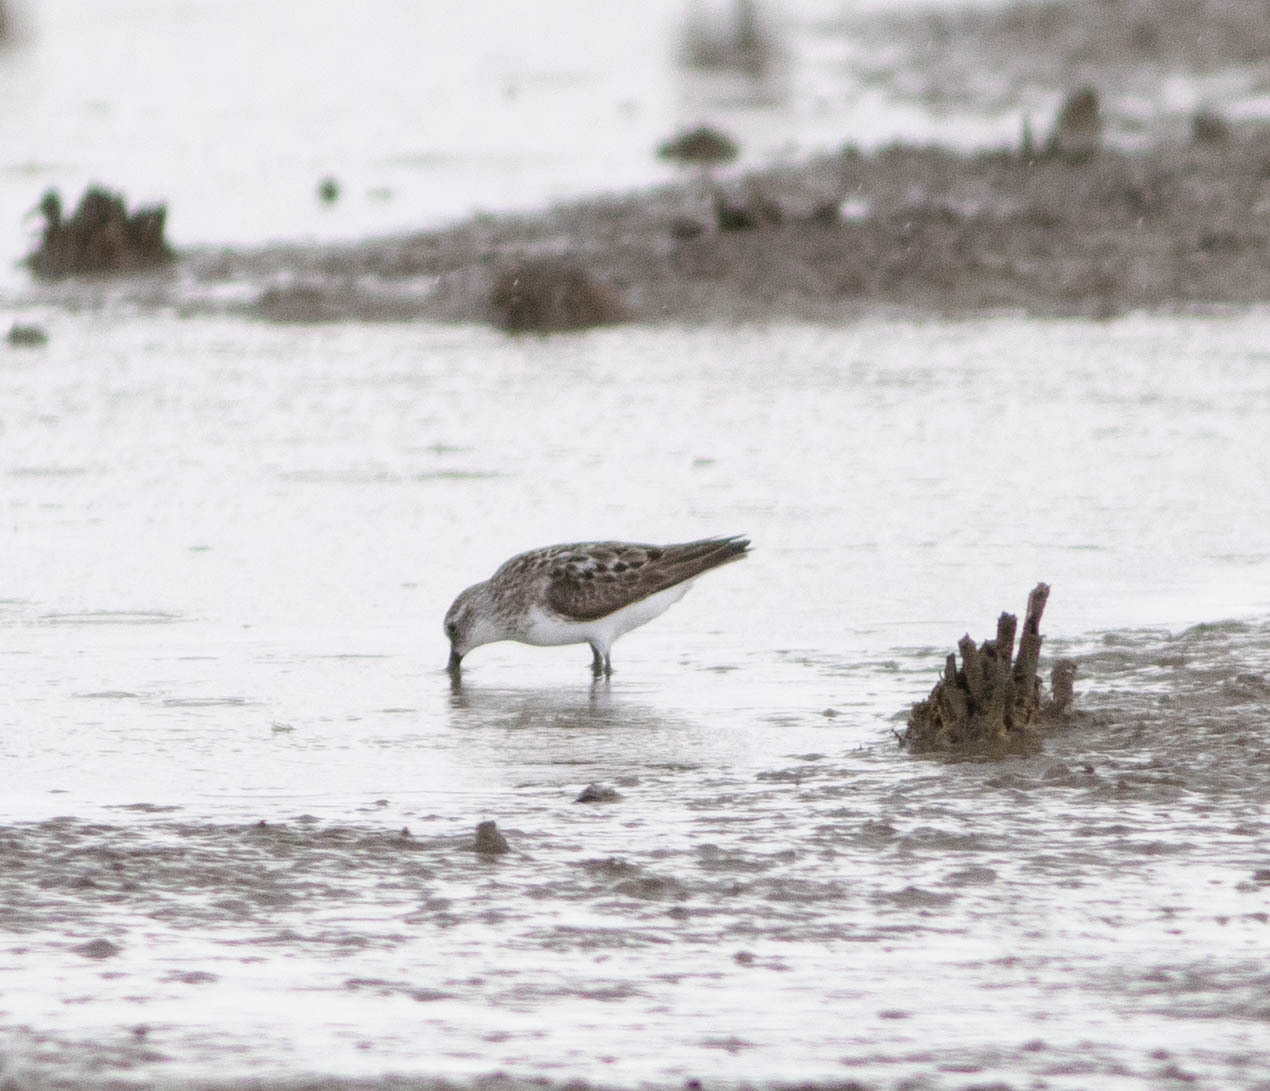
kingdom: Animalia
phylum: Chordata
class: Aves
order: Charadriiformes
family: Scolopacidae
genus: Calidris
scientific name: Calidris pusilla
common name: Semipalmated sandpiper
